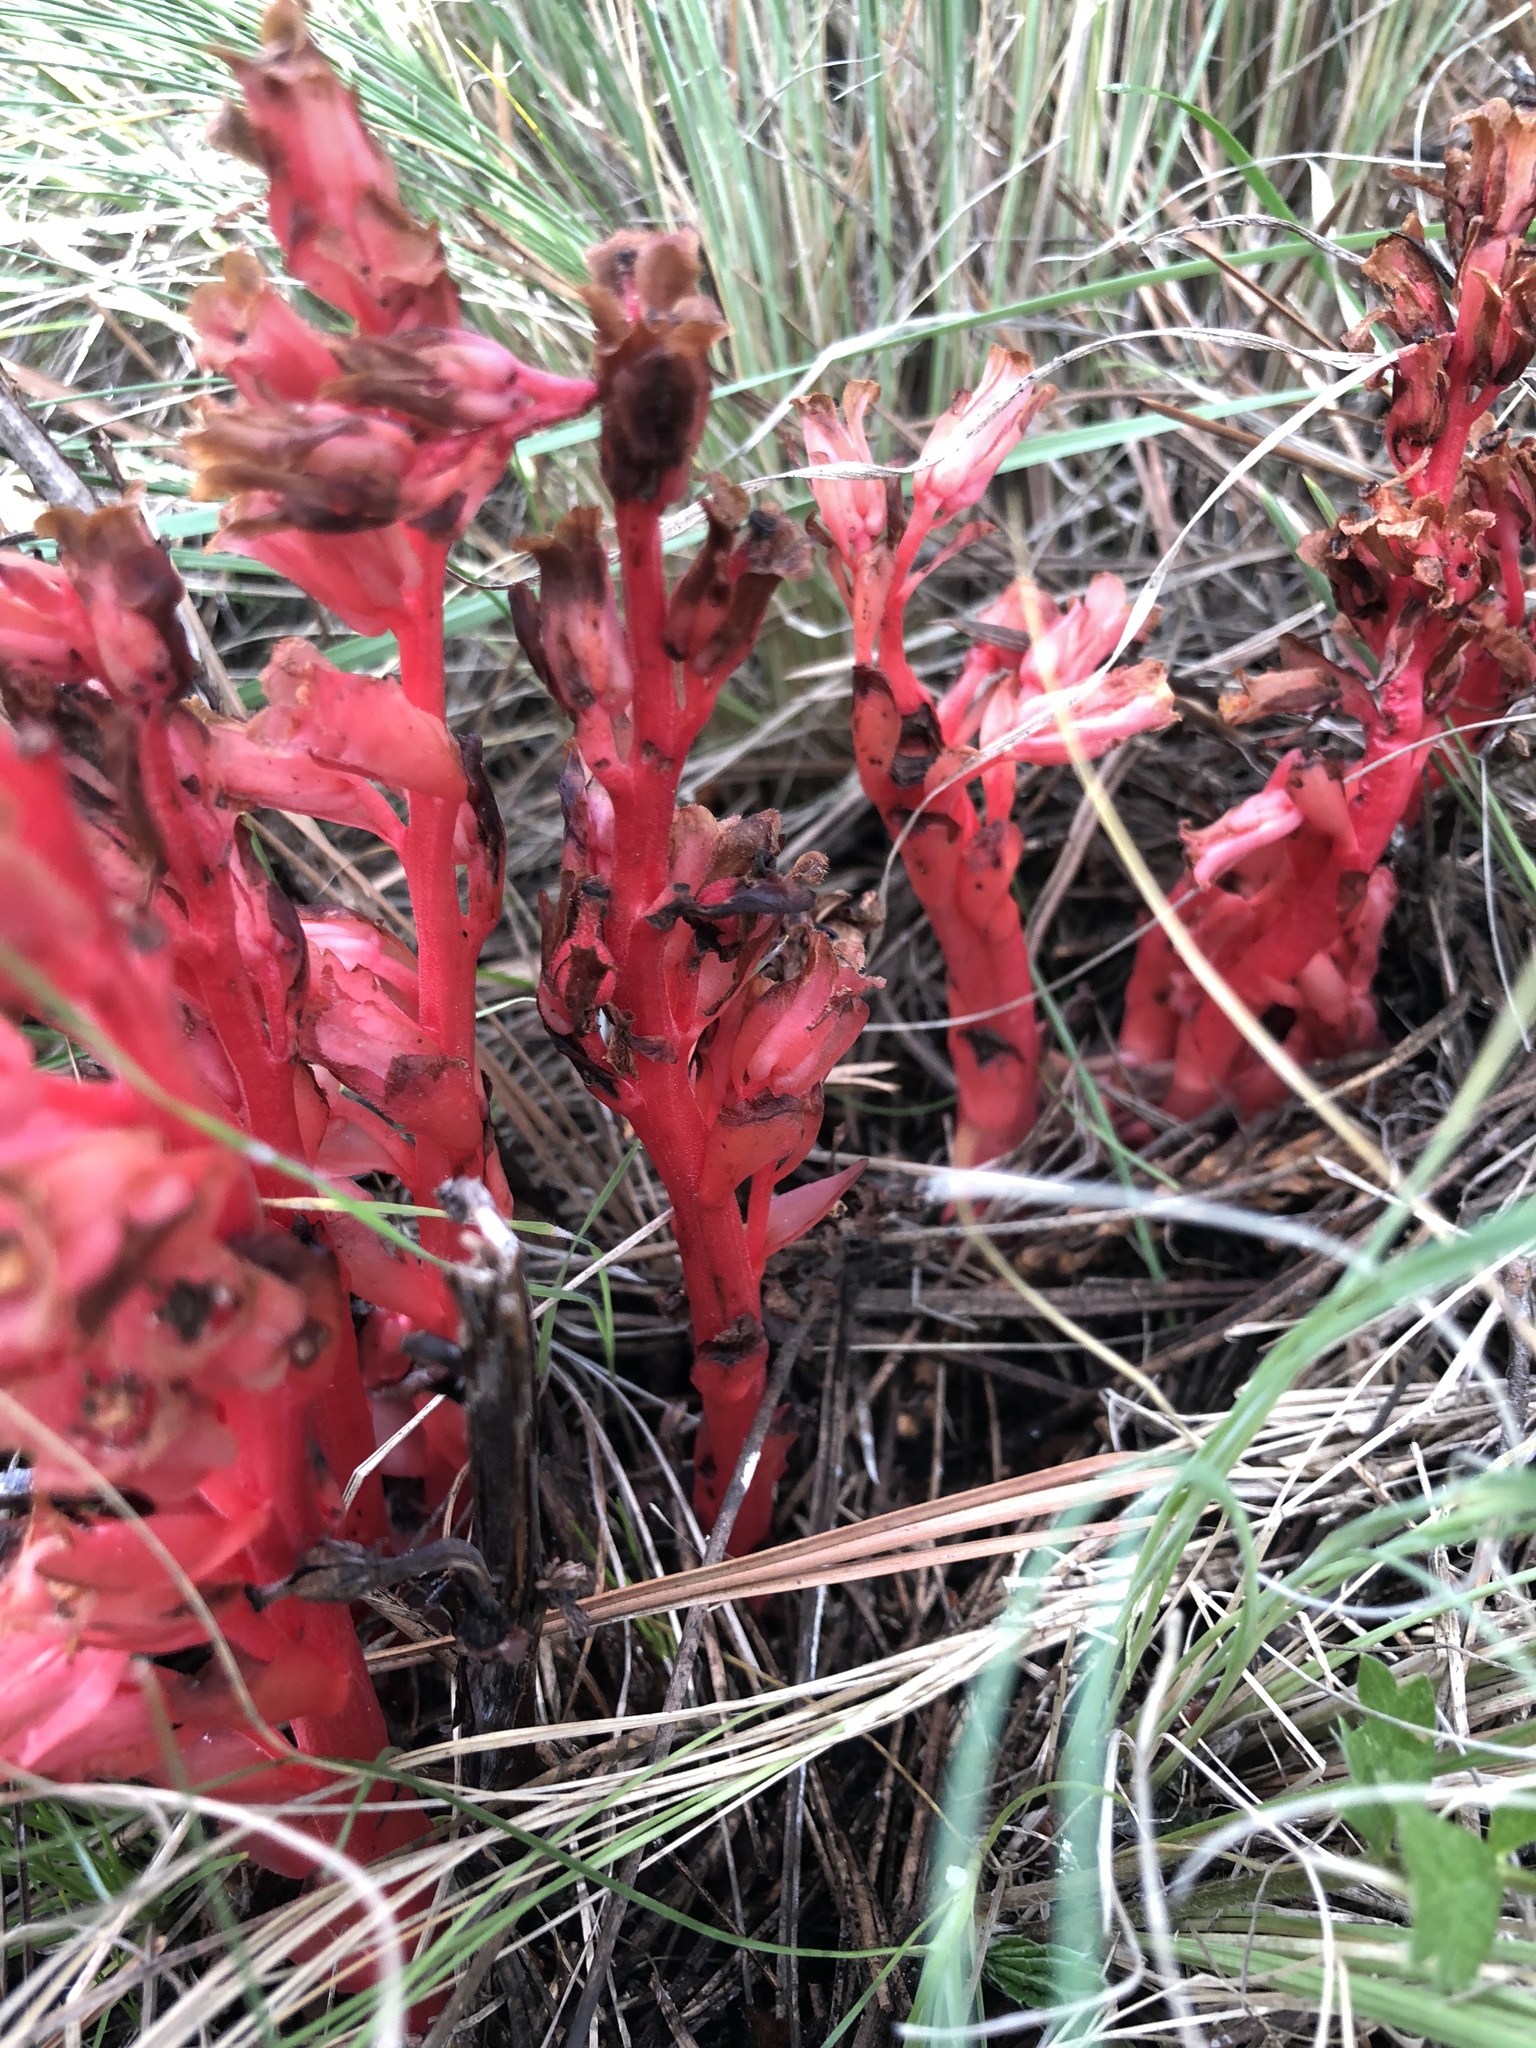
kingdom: Plantae
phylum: Tracheophyta
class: Magnoliopsida
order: Ericales
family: Ericaceae
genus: Hypopitys
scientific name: Hypopitys monotropa
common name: Yellow bird's-nest
